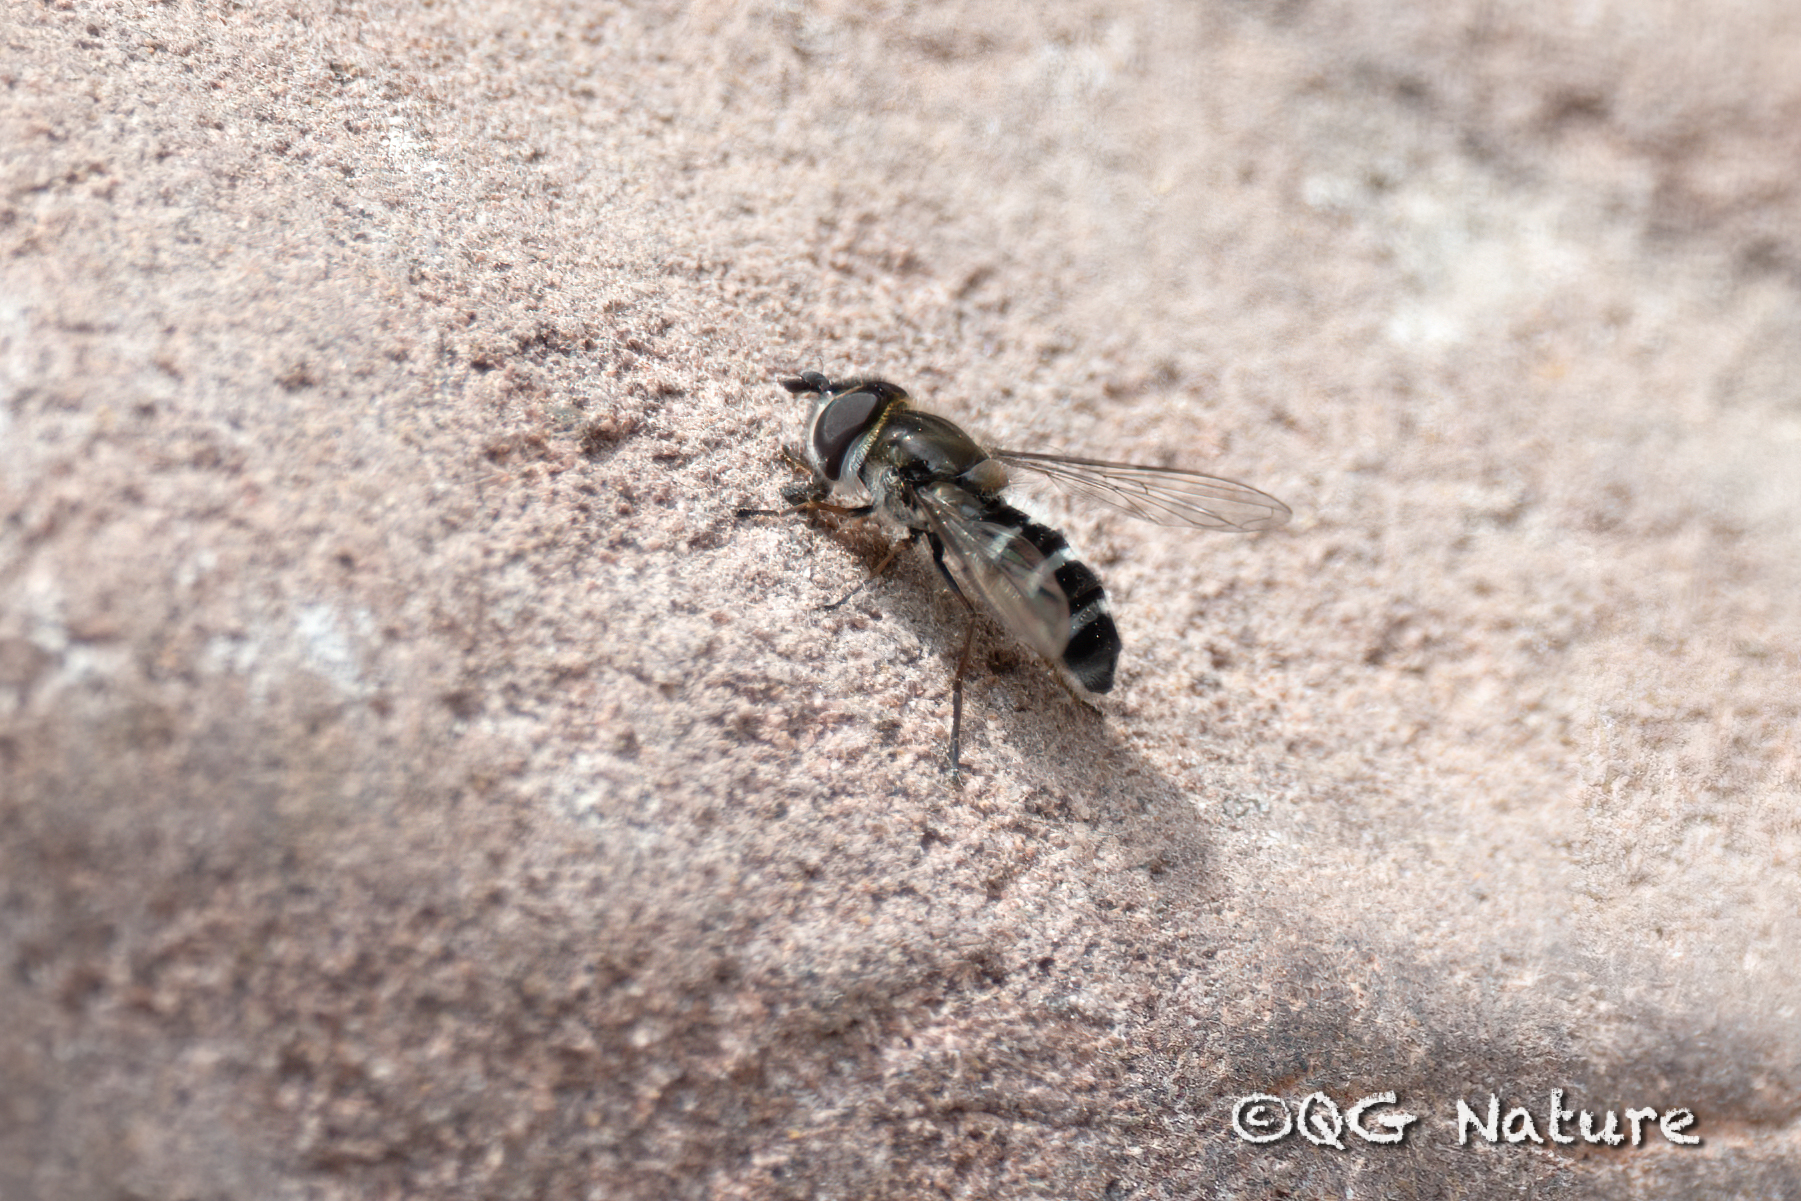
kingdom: Animalia
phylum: Arthropoda
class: Insecta
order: Diptera
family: Syrphidae
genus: Betasyrphus
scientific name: Betasyrphus serarius
